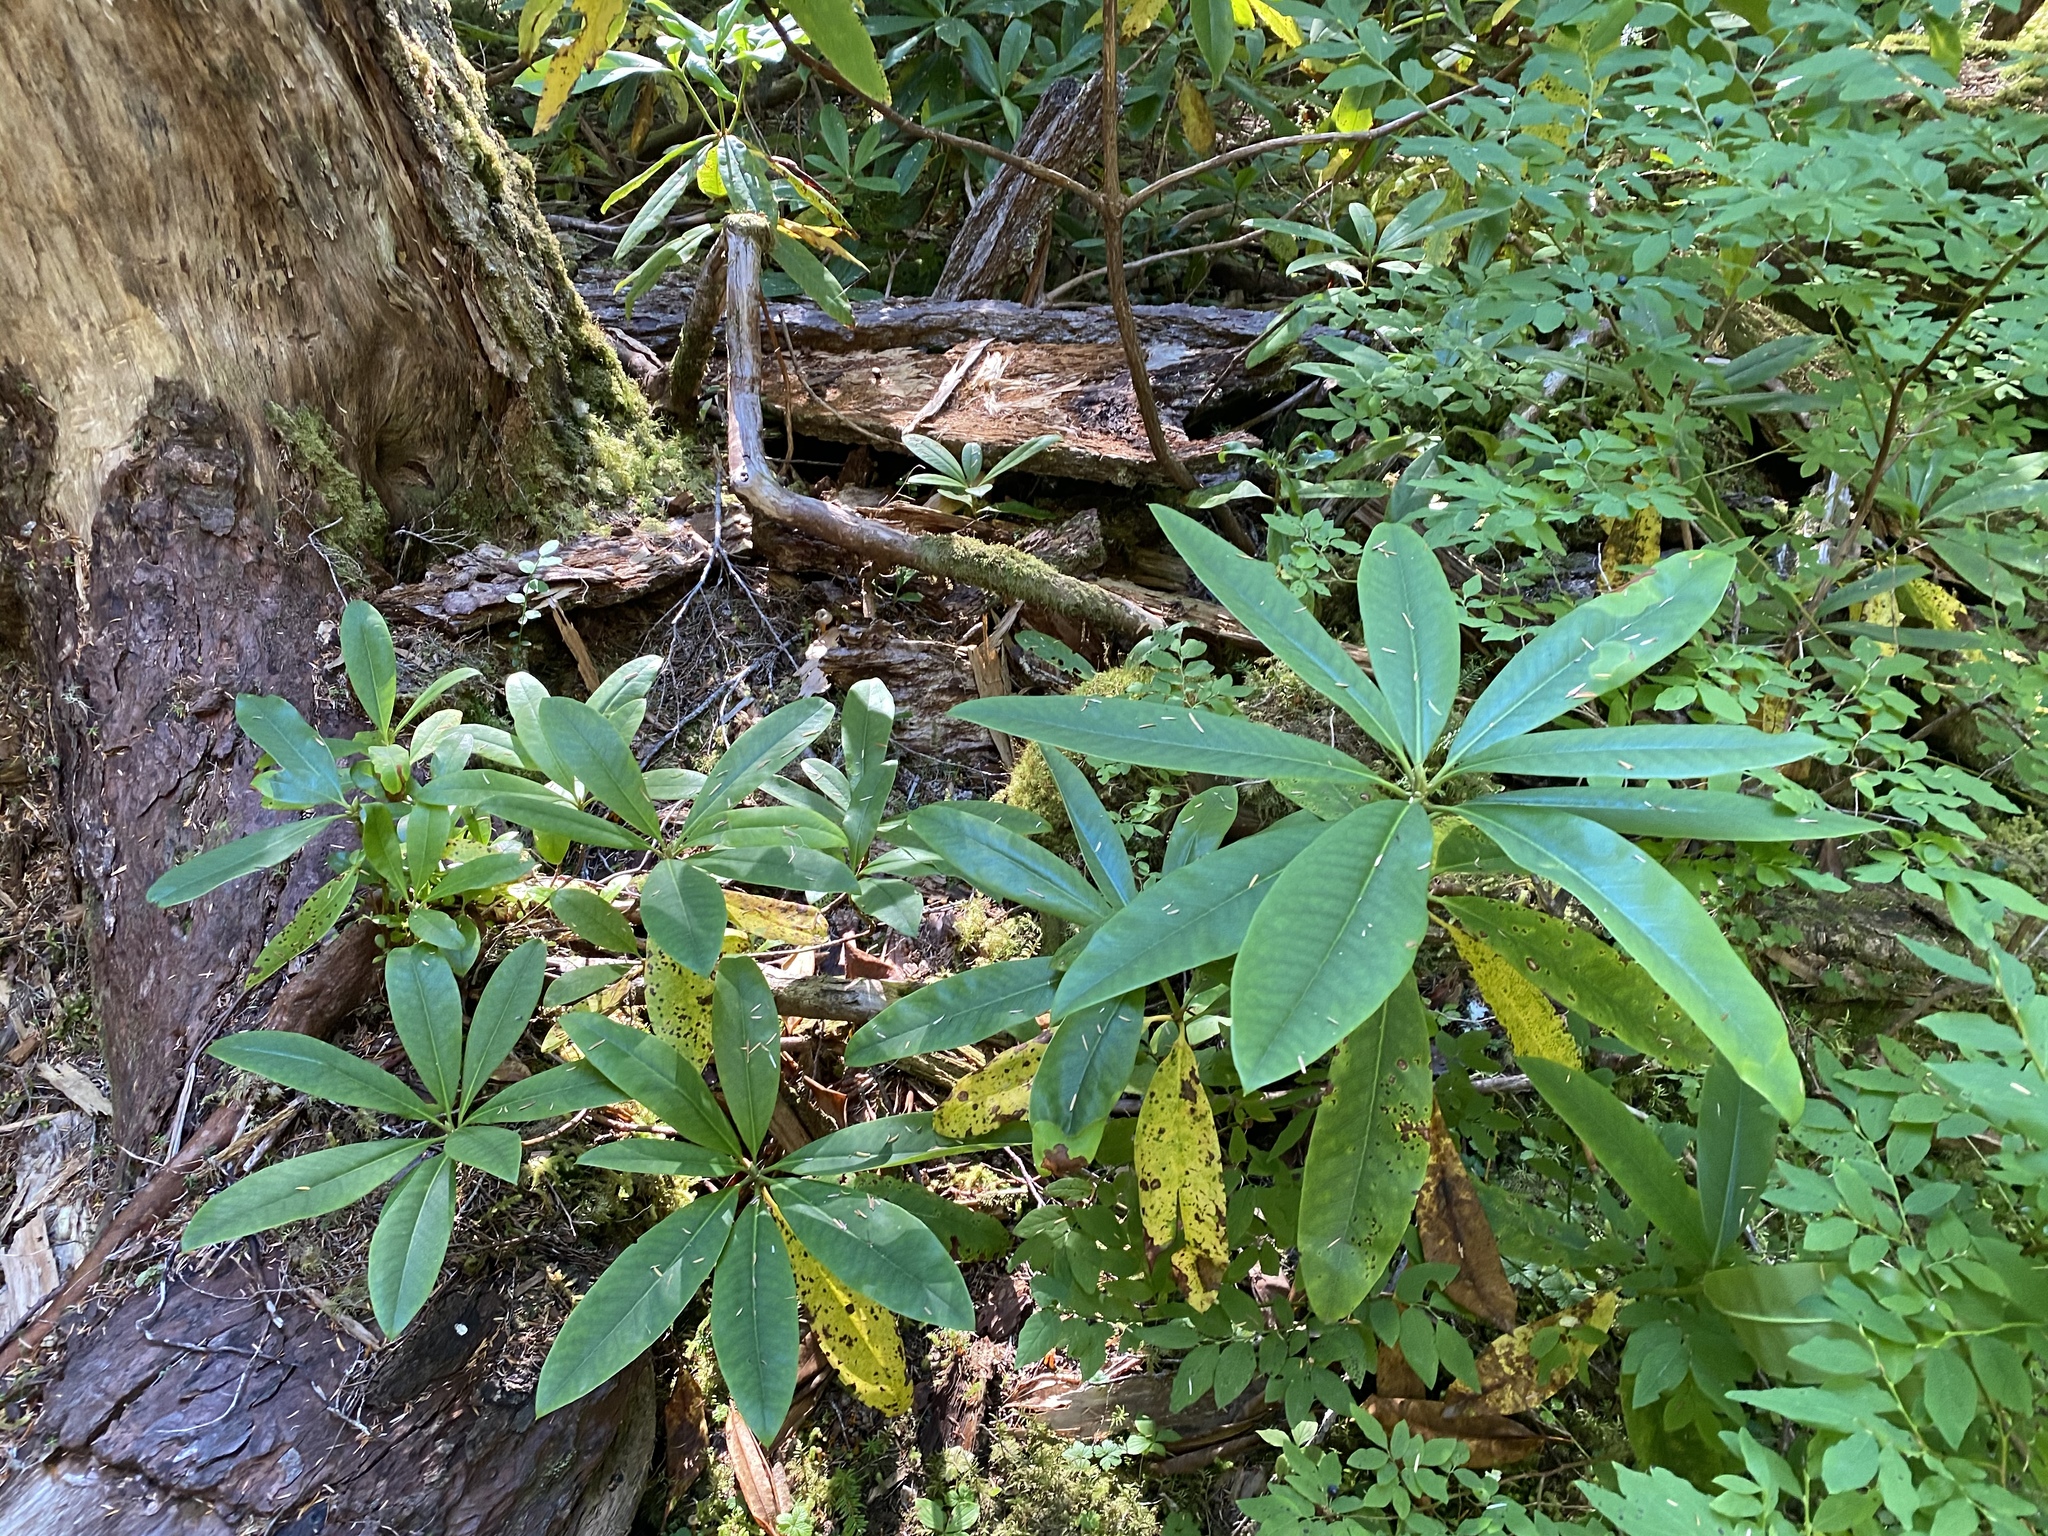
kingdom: Plantae
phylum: Tracheophyta
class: Magnoliopsida
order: Ericales
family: Ericaceae
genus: Rhododendron
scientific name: Rhododendron macrophyllum
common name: California rose bay
